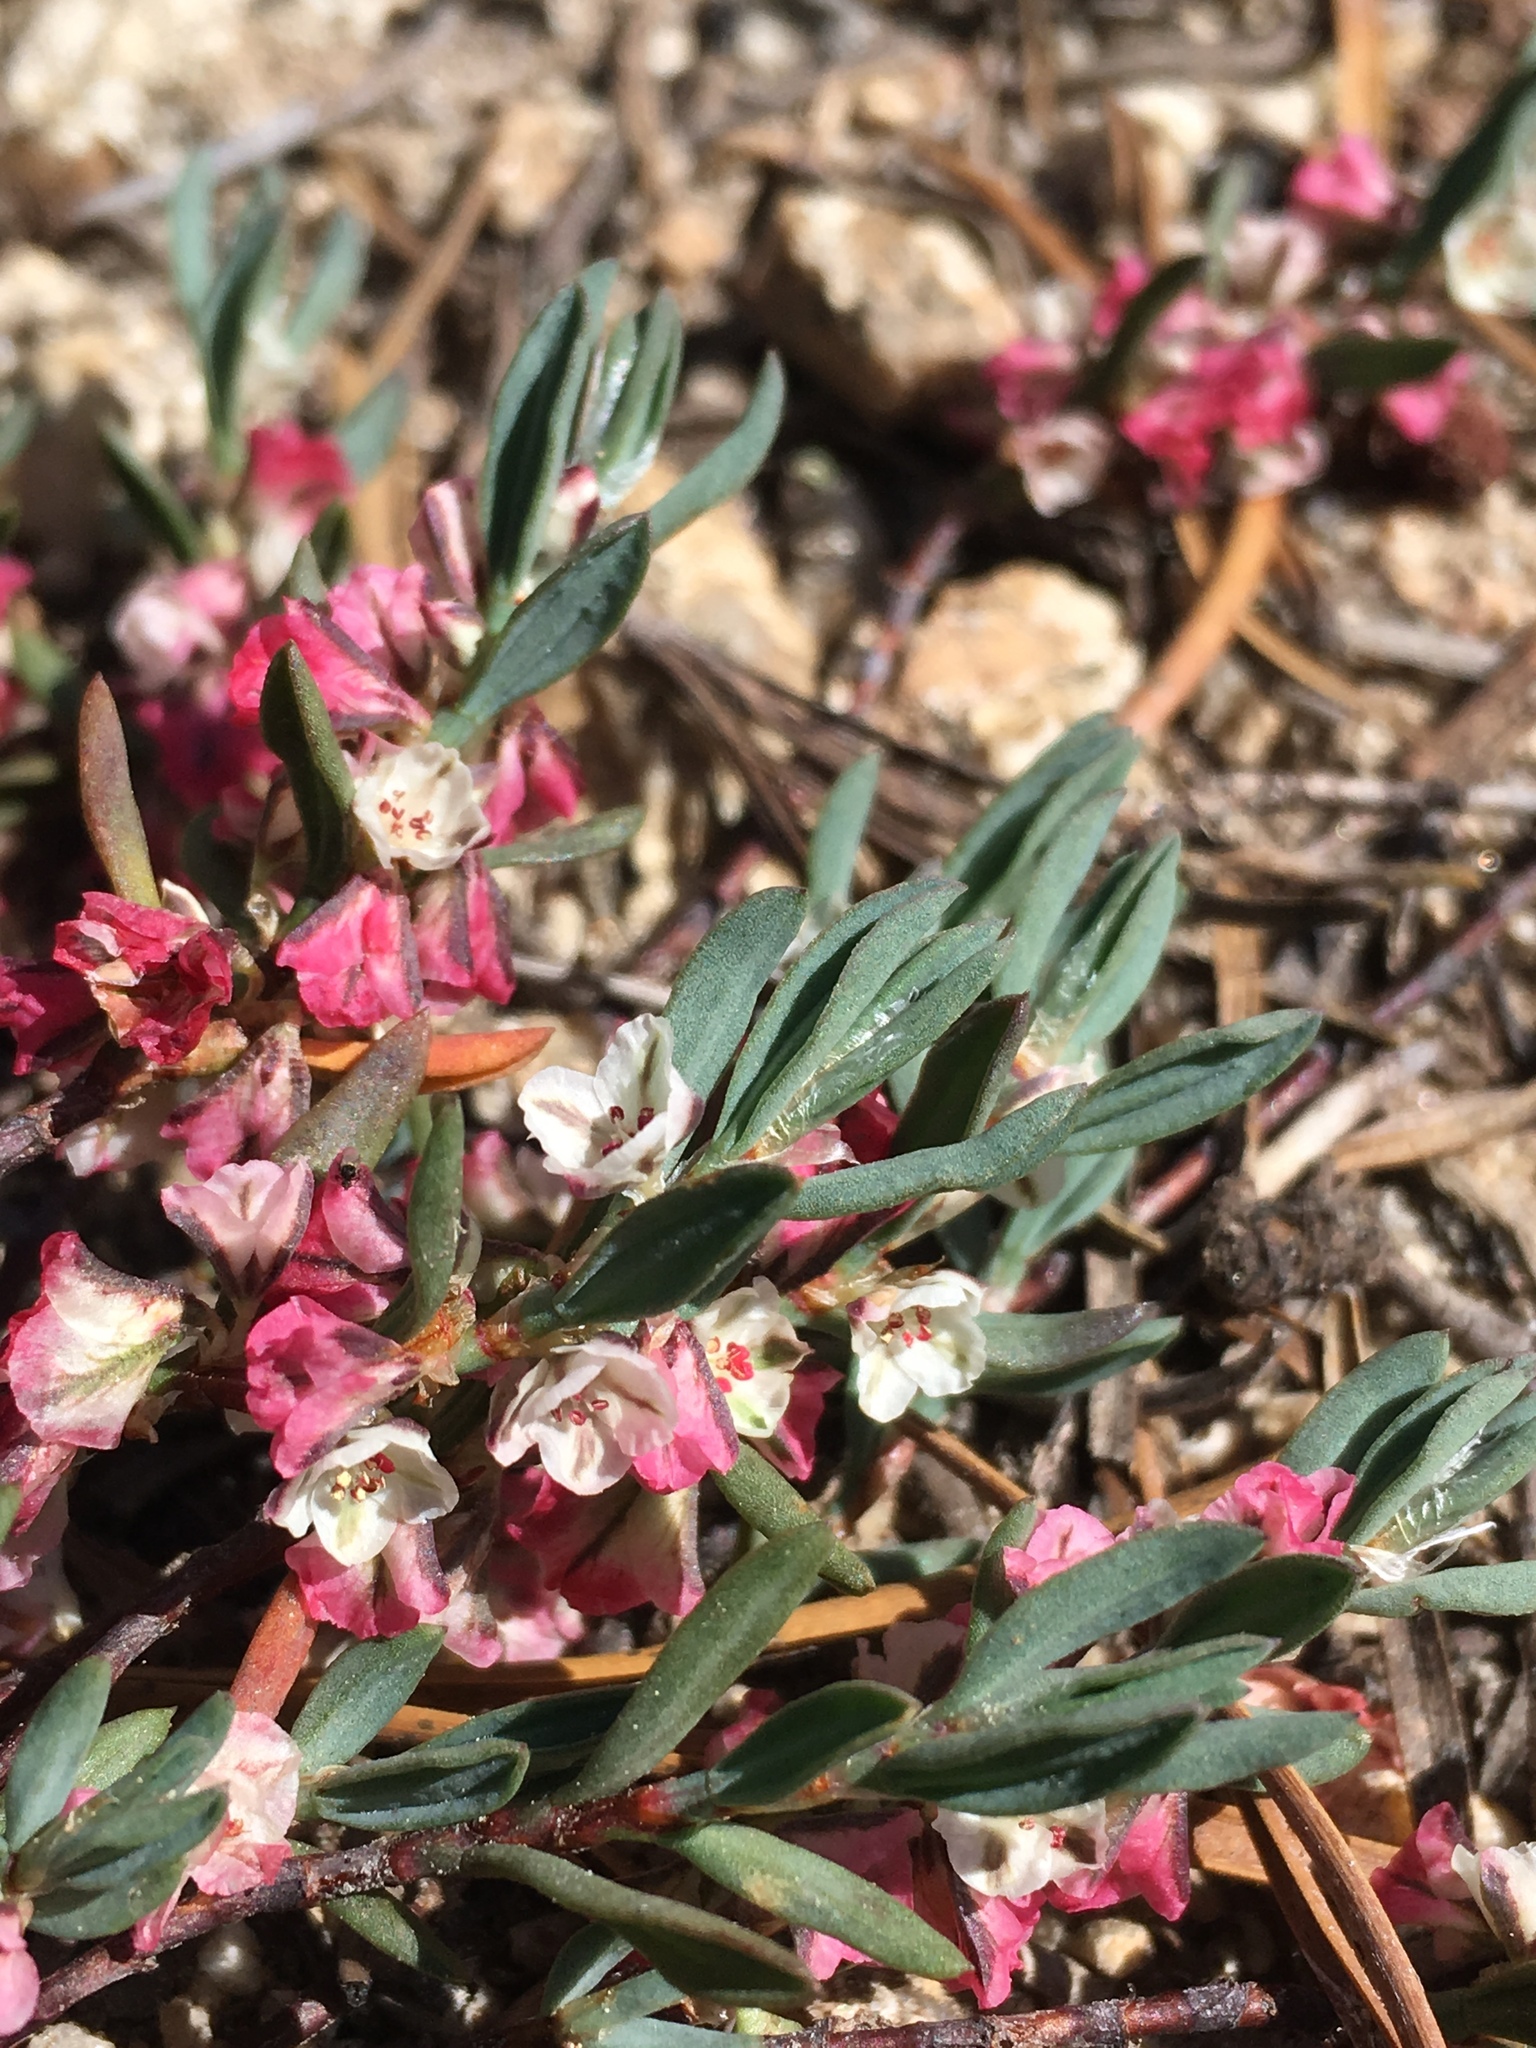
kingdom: Plantae
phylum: Tracheophyta
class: Magnoliopsida
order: Caryophyllales
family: Polygonaceae
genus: Polygonum
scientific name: Polygonum shastense
